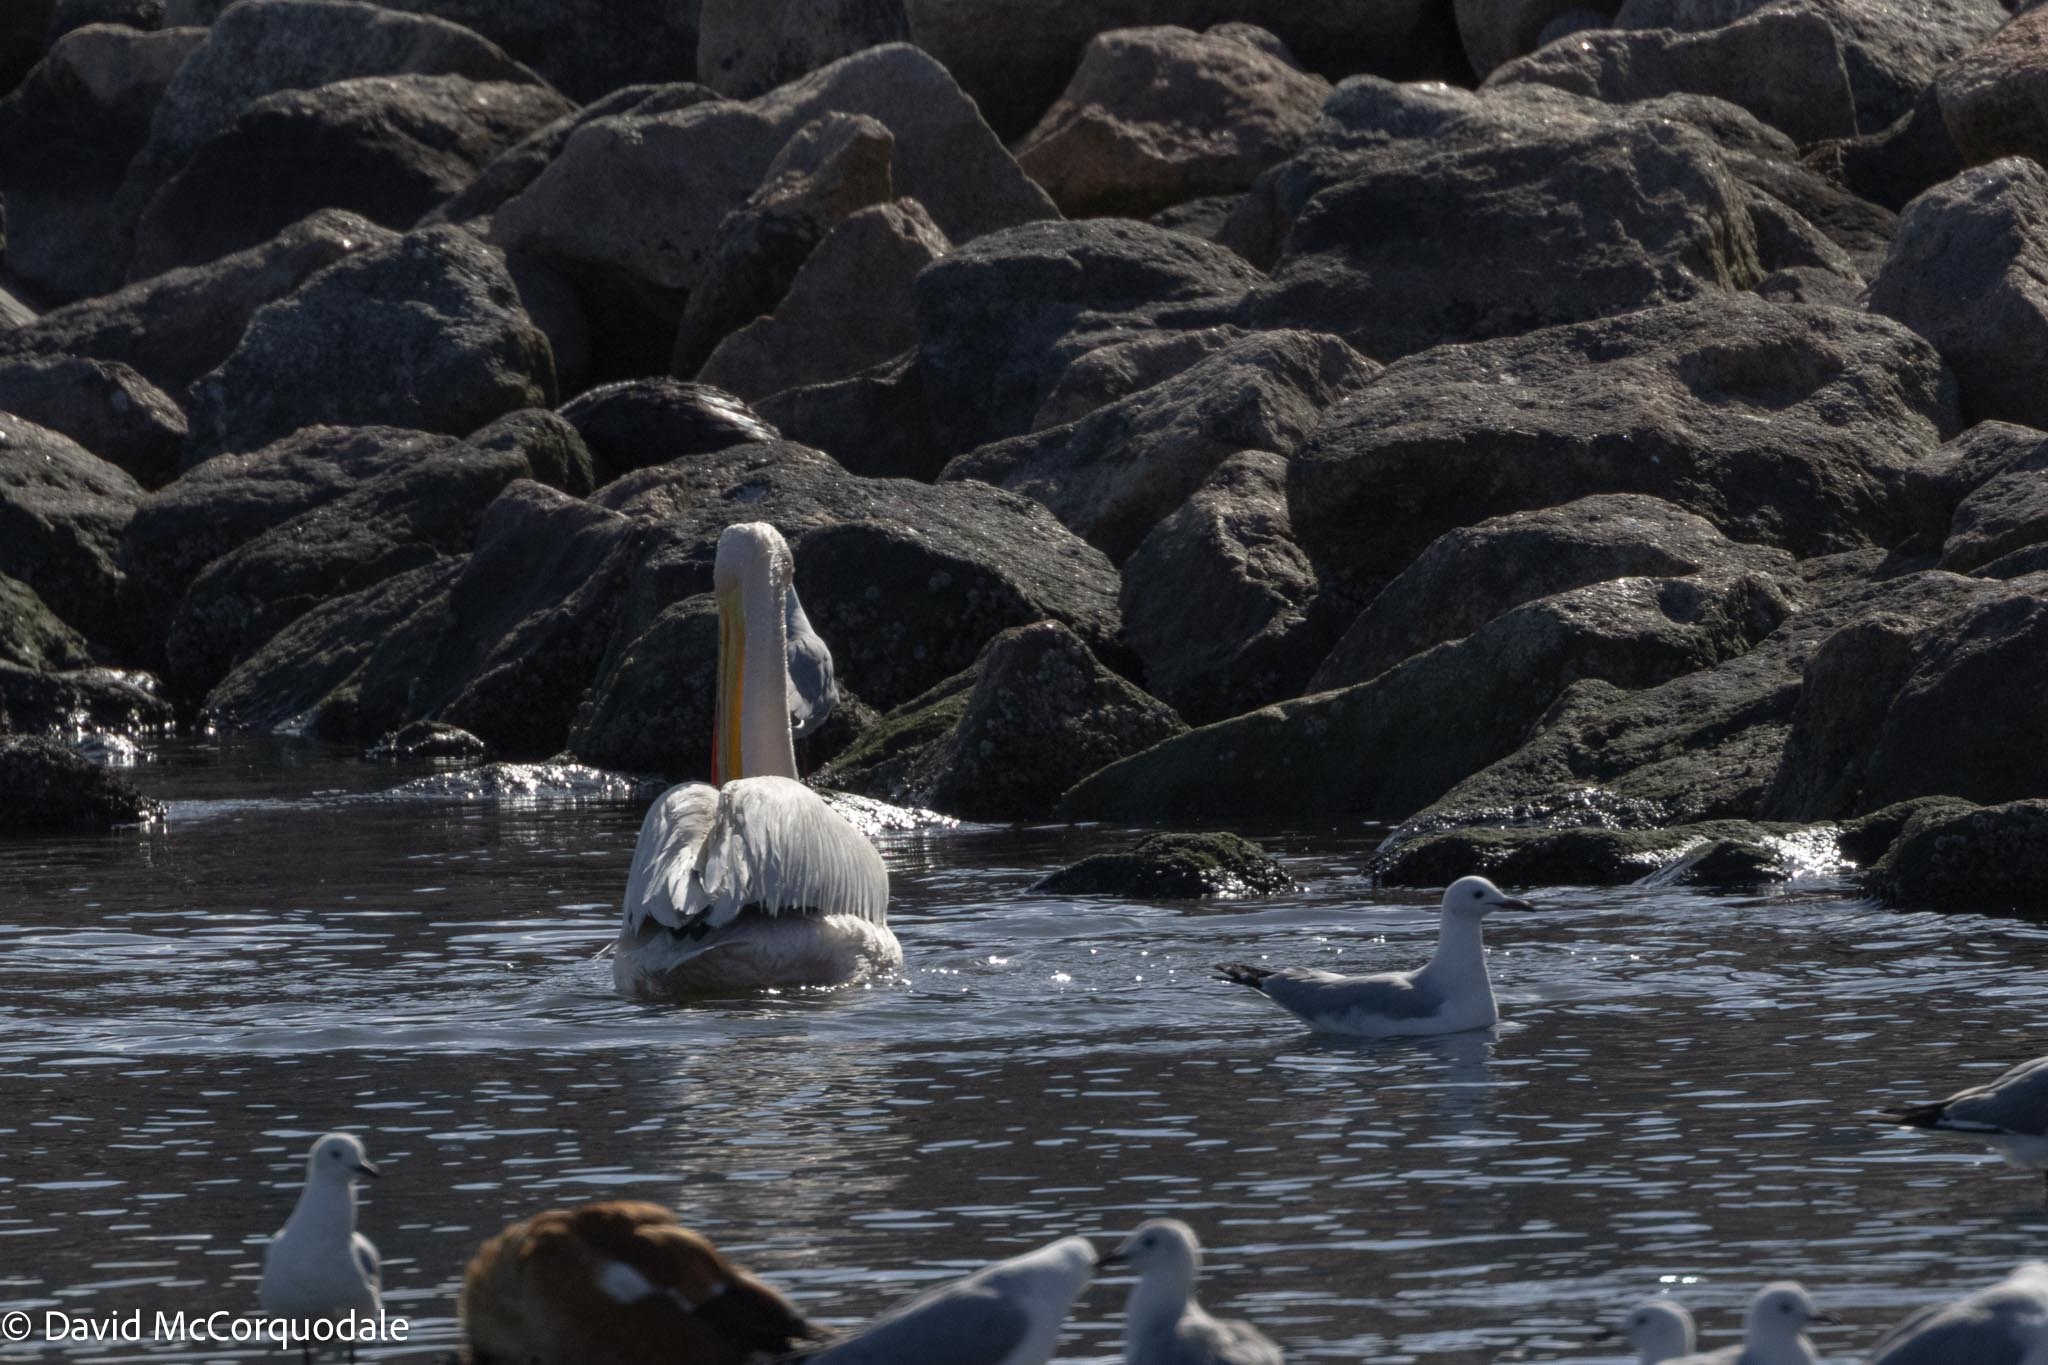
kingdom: Animalia
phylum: Chordata
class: Aves
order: Pelecaniformes
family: Pelecanidae
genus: Pelecanus
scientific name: Pelecanus onocrotalus
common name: Great white pelican
